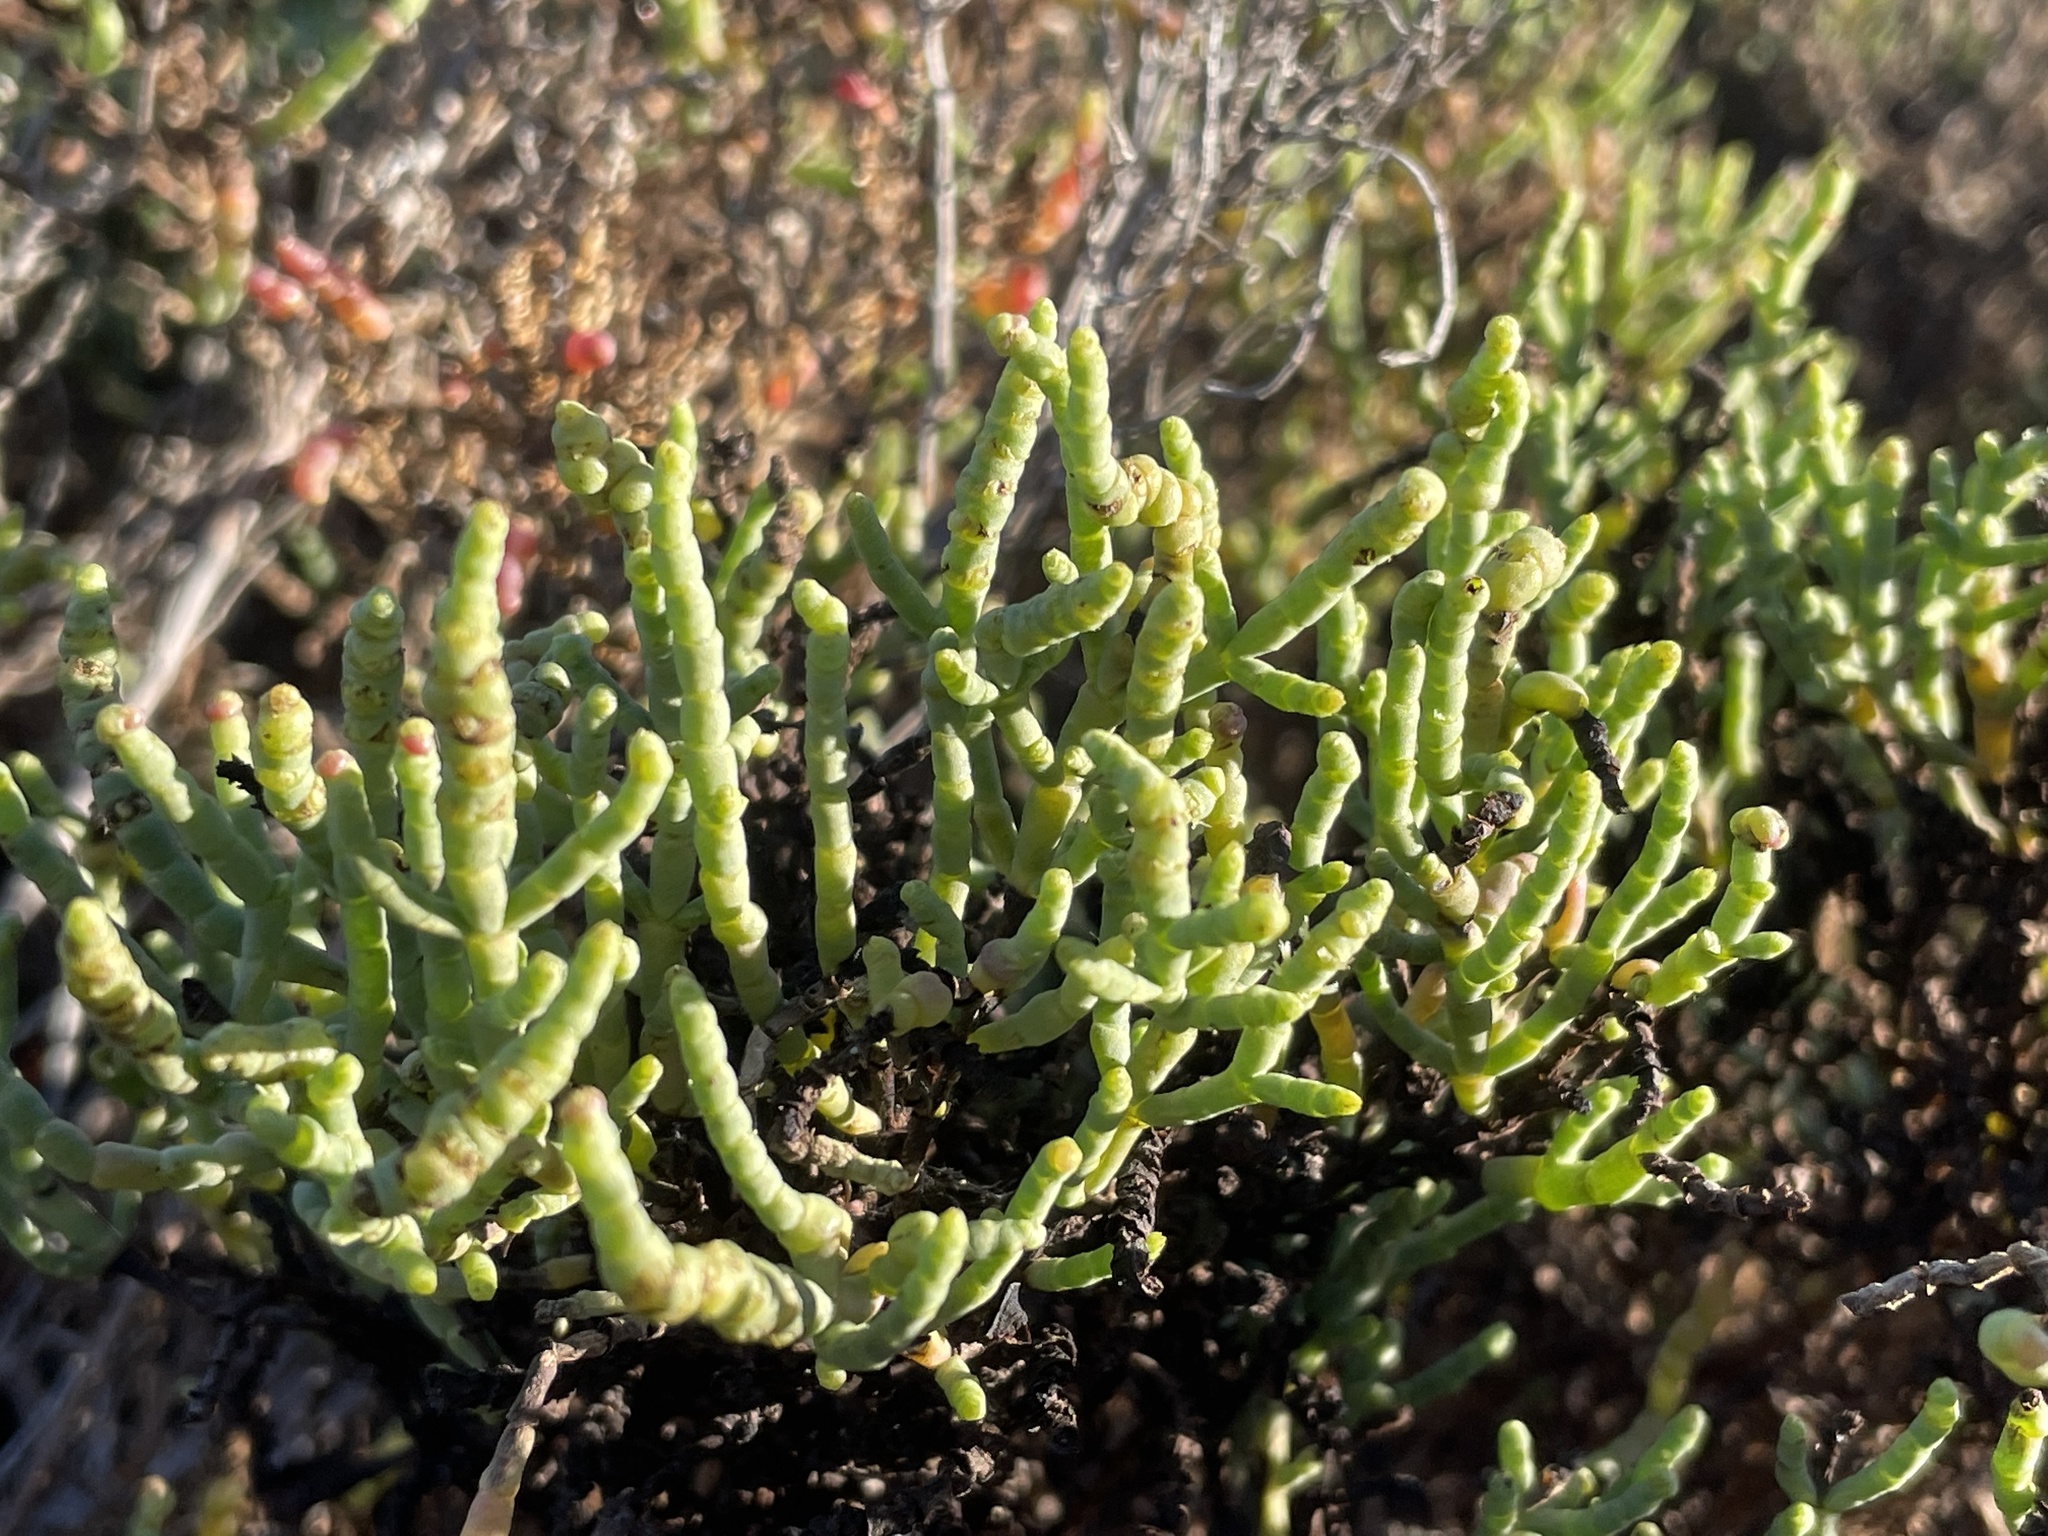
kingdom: Plantae
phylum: Tracheophyta
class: Magnoliopsida
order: Caryophyllales
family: Amaranthaceae
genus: Arthroceras
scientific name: Arthroceras subterminale
